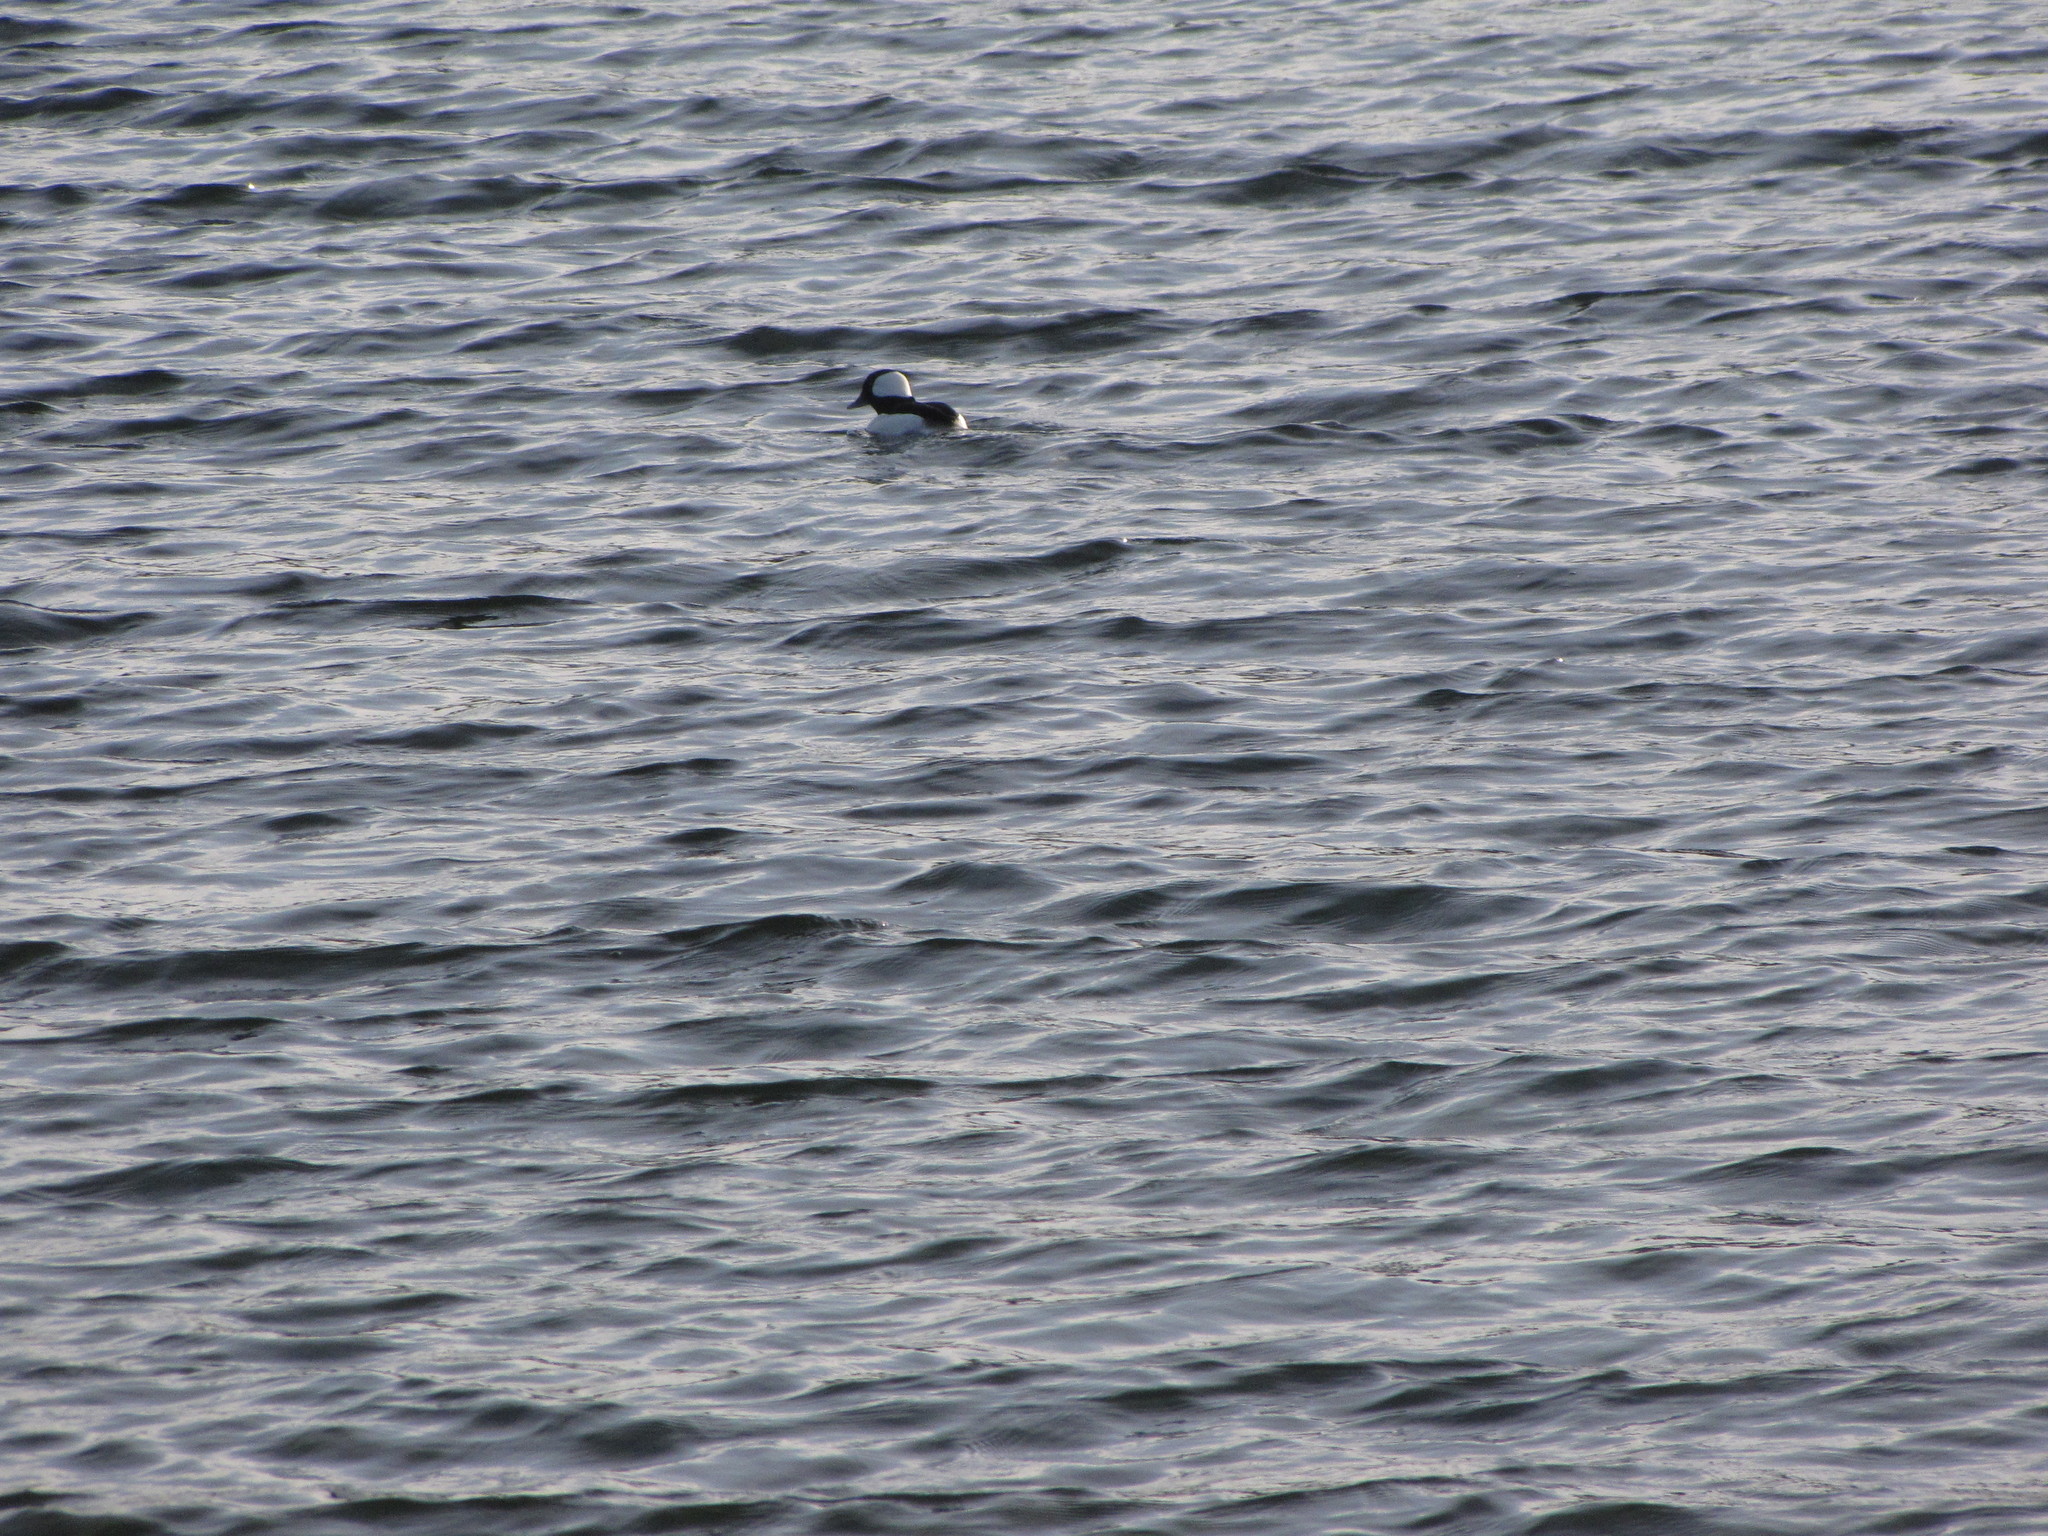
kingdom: Animalia
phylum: Chordata
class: Aves
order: Anseriformes
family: Anatidae
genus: Bucephala
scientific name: Bucephala albeola
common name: Bufflehead
